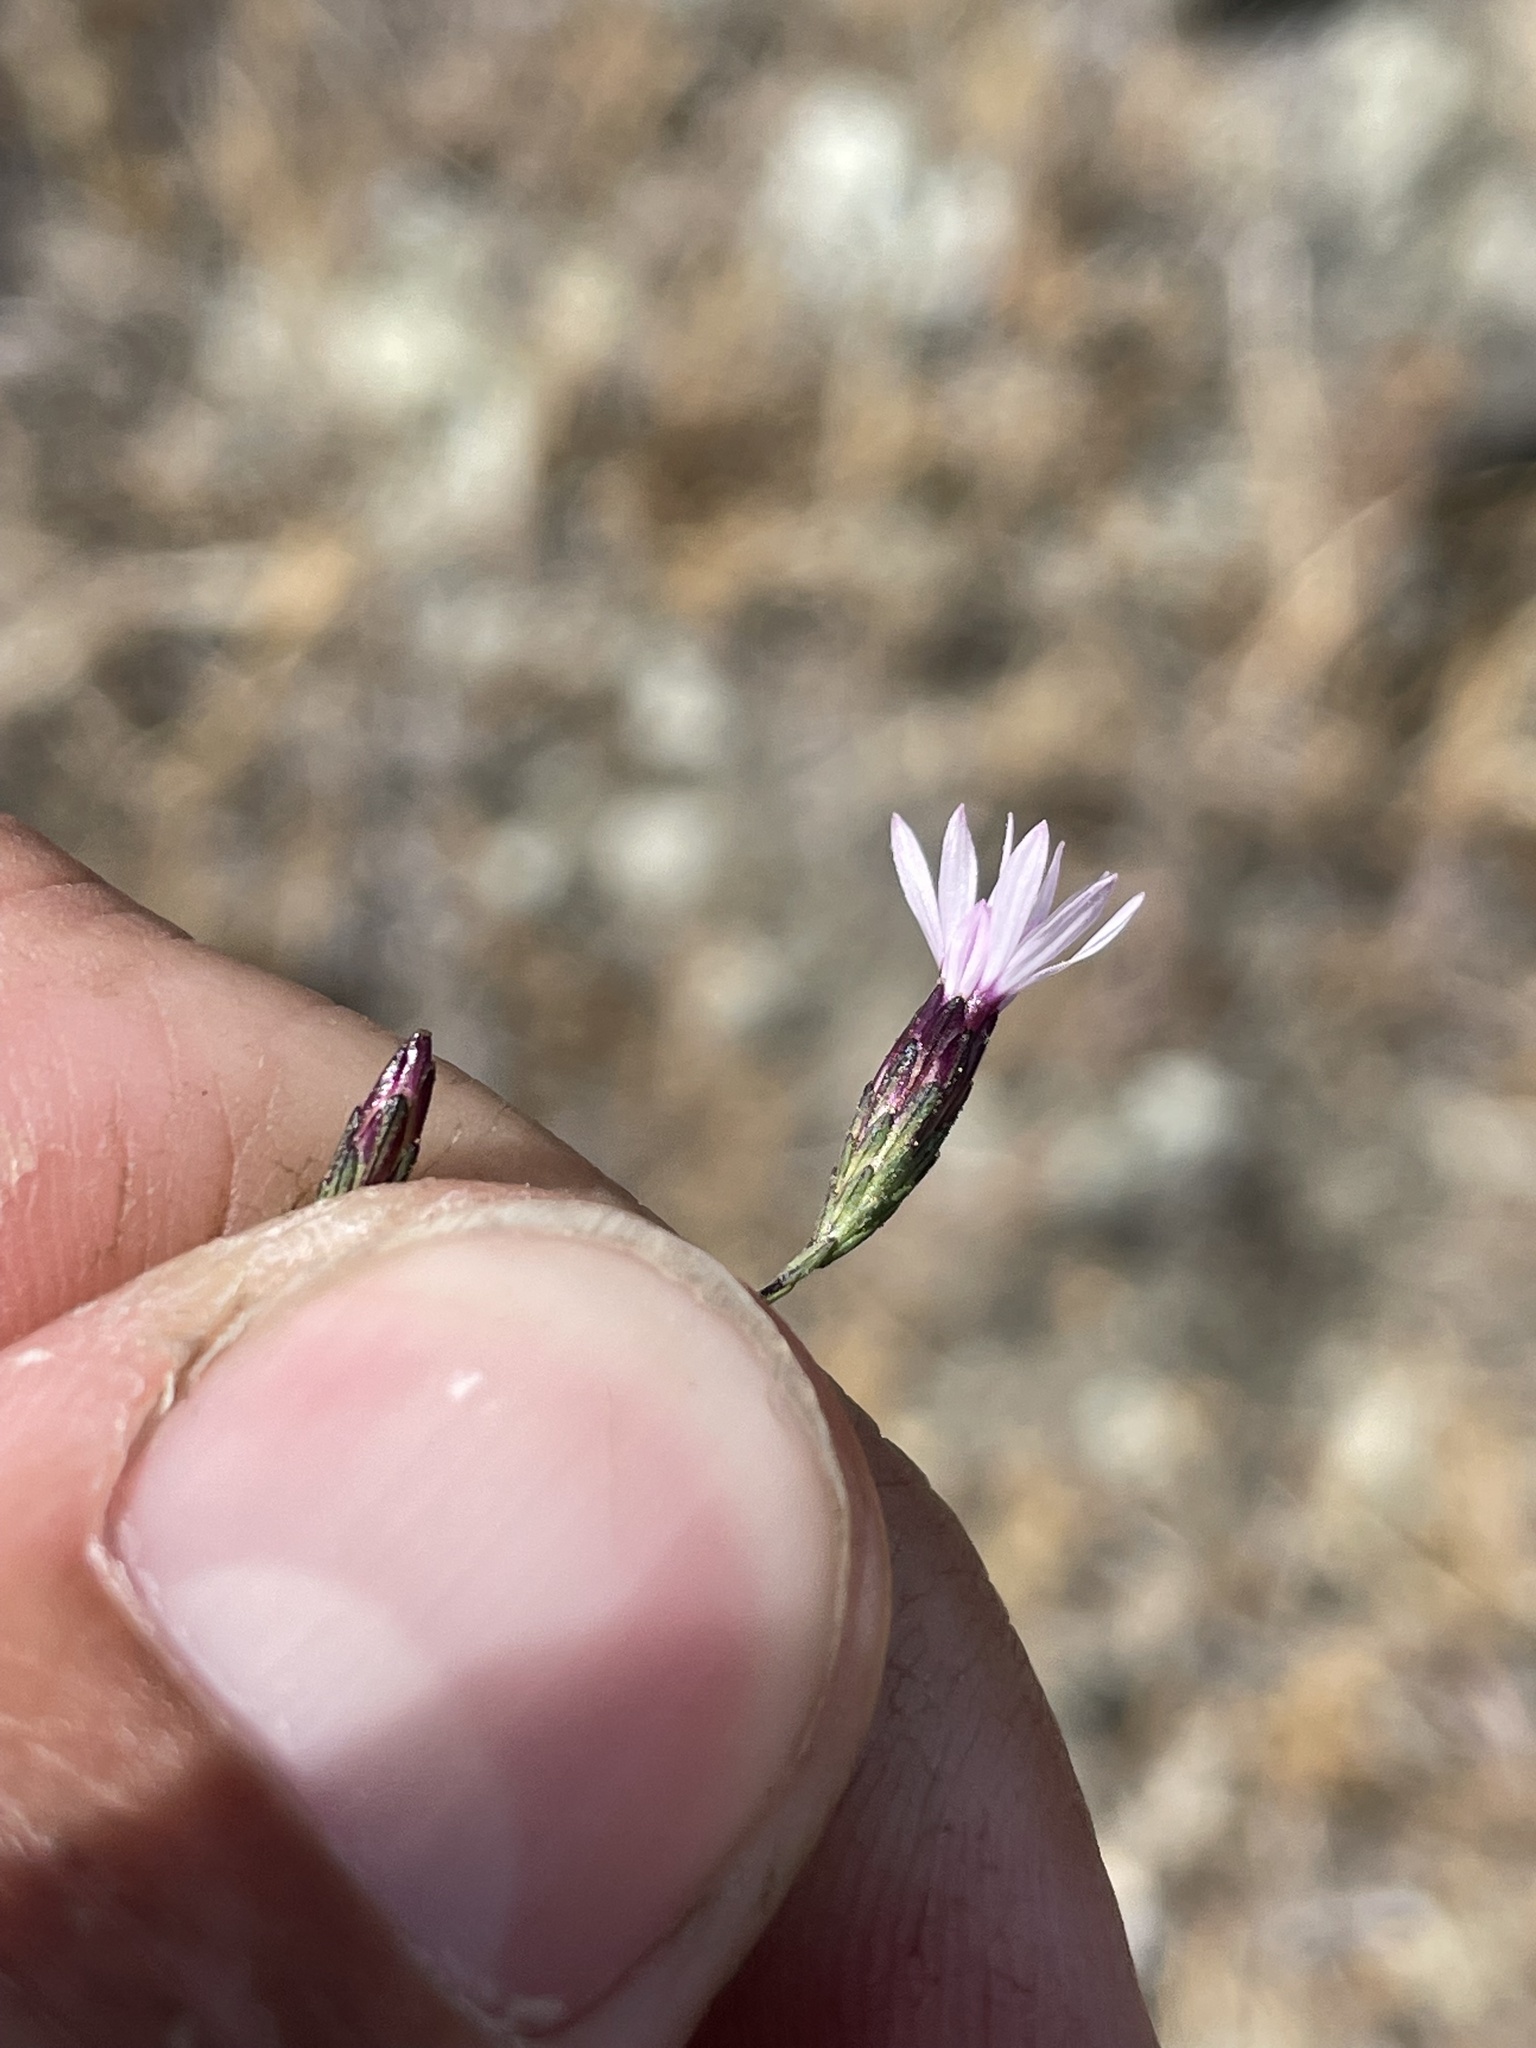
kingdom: Plantae
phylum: Tracheophyta
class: Magnoliopsida
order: Asterales
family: Asteraceae
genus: Lessingia
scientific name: Lessingia micradenia
